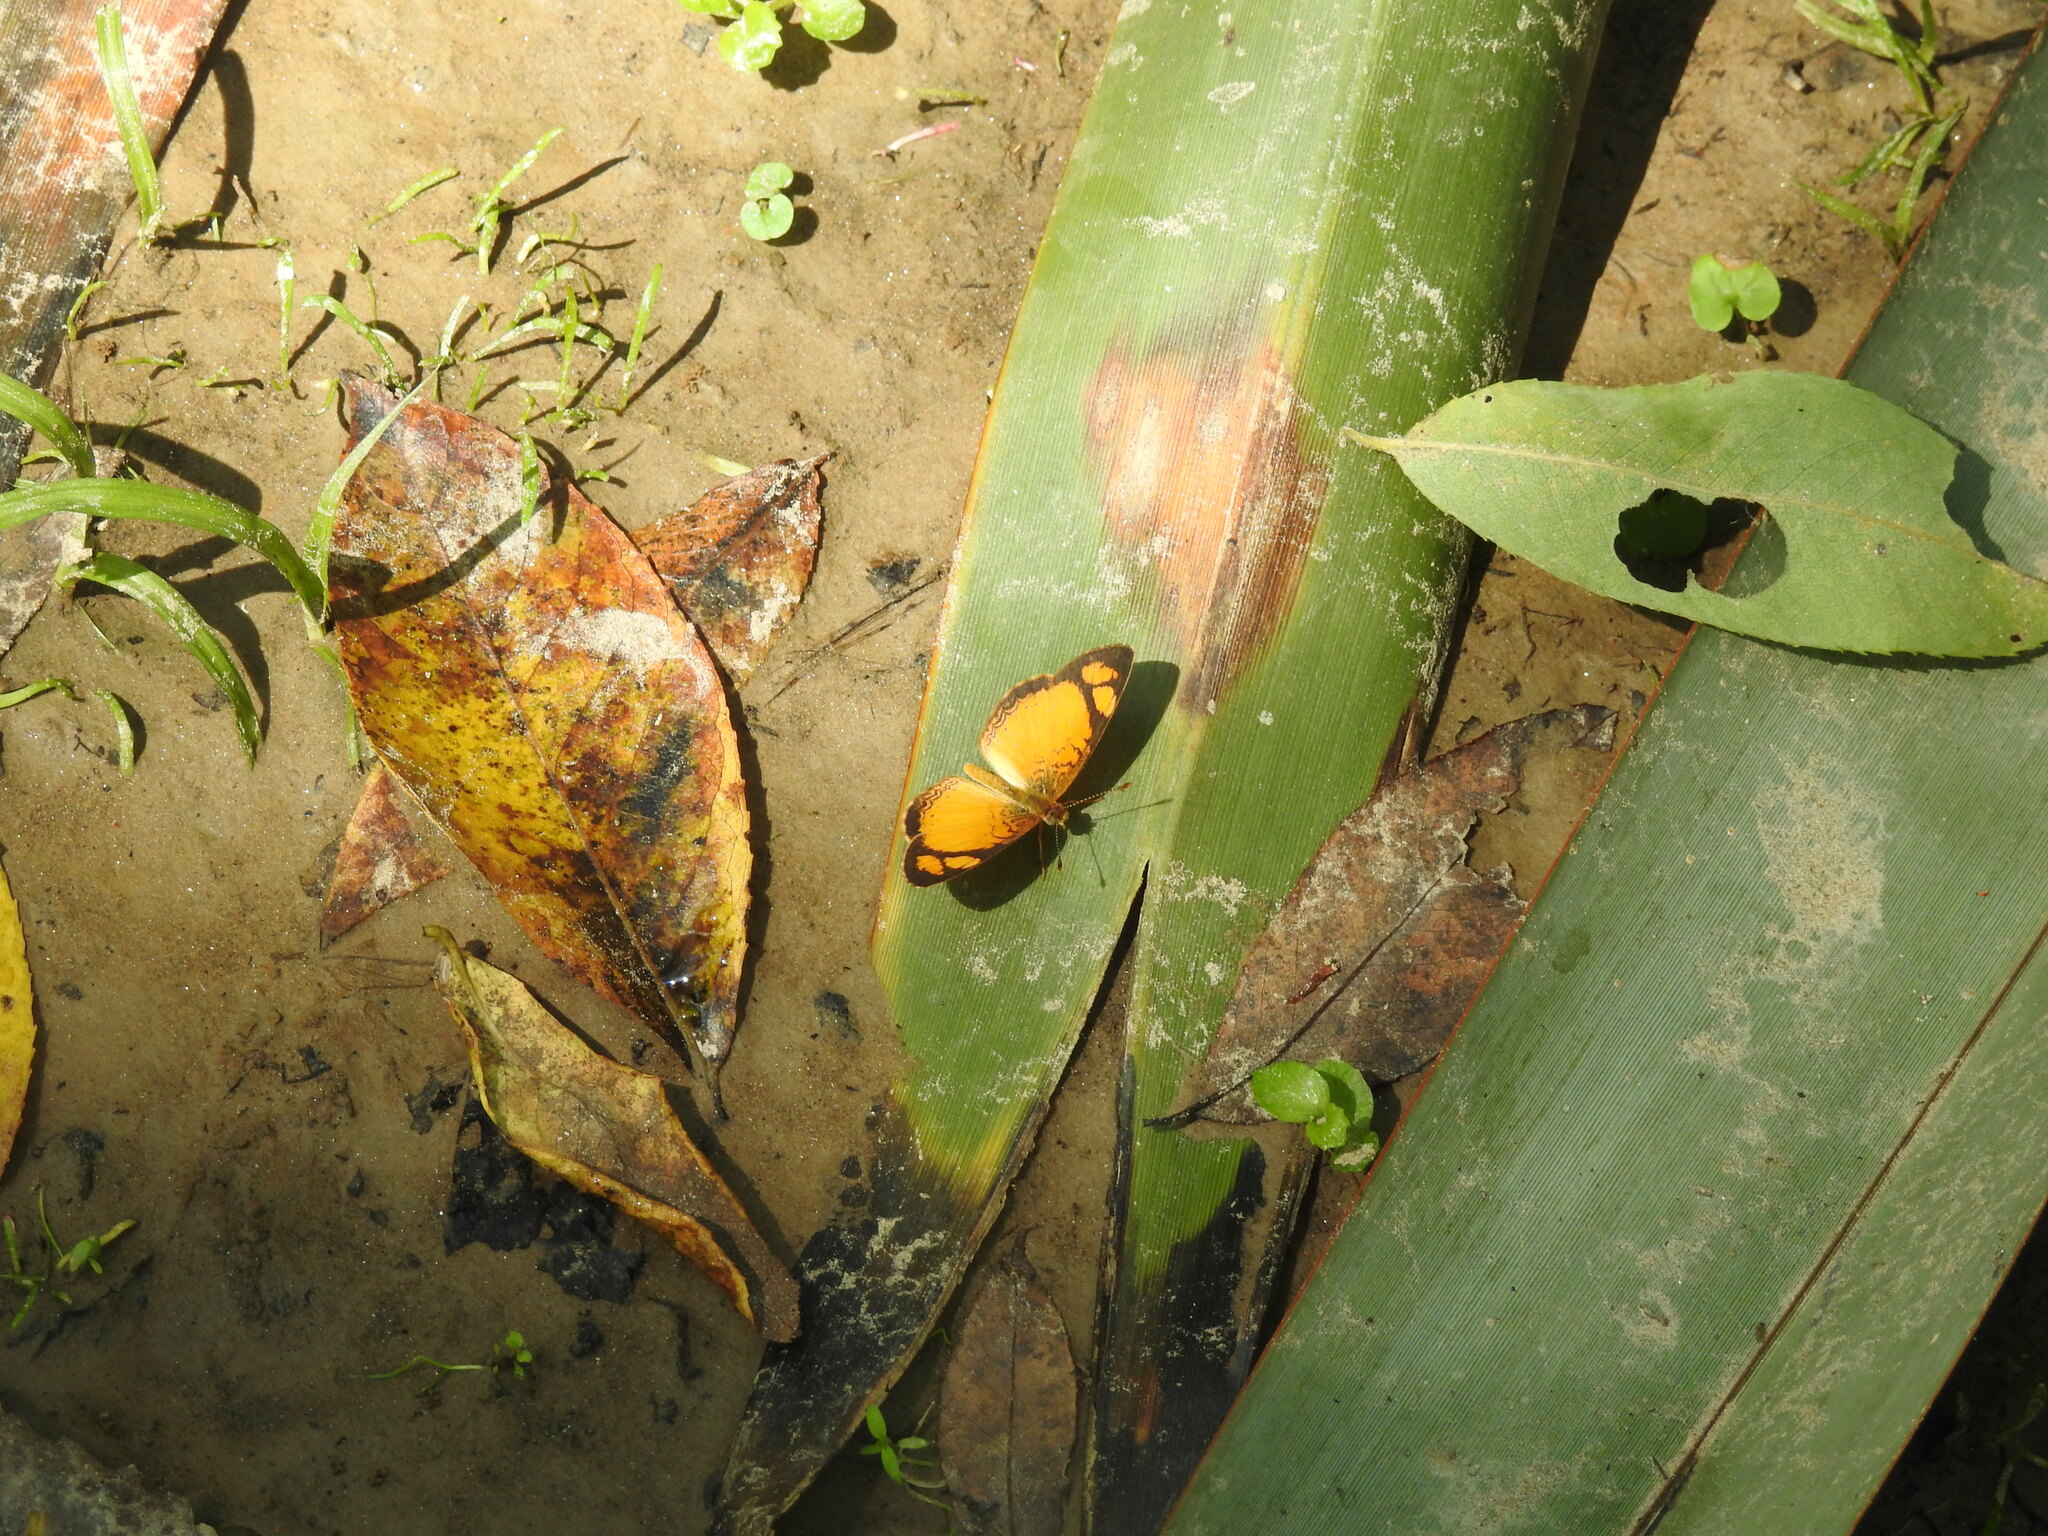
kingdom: Animalia
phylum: Arthropoda
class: Insecta
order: Lepidoptera
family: Nymphalidae
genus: Tegosa
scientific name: Tegosa claudina
